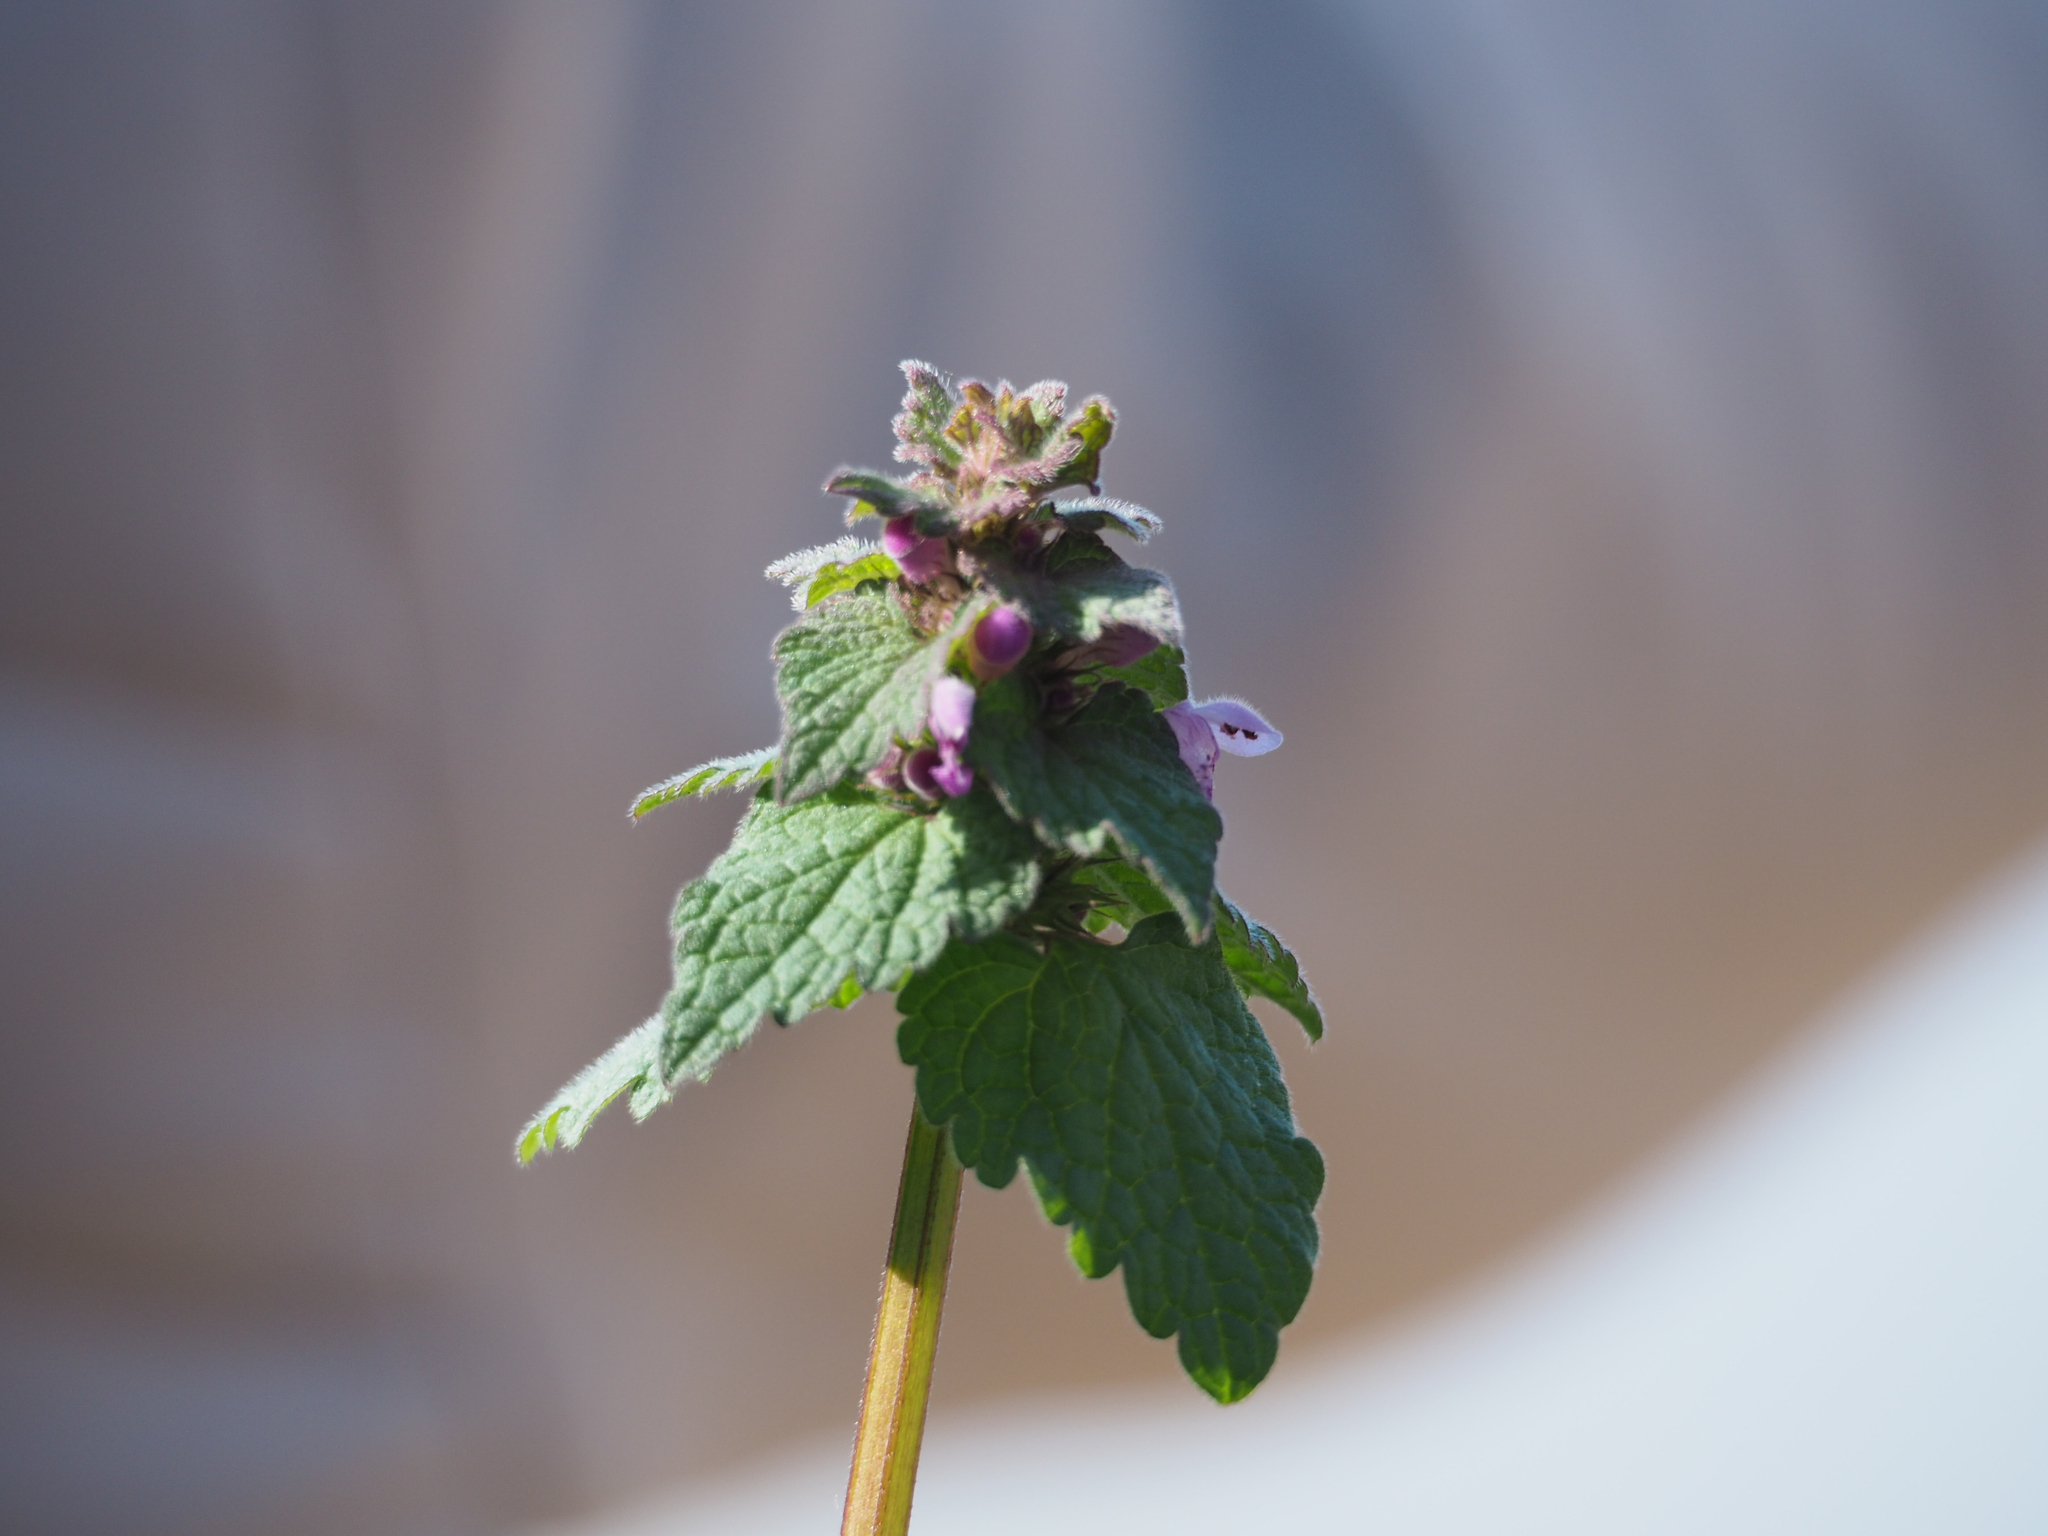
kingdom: Plantae
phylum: Tracheophyta
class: Magnoliopsida
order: Lamiales
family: Lamiaceae
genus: Lamium
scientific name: Lamium purpureum
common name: Red dead-nettle
